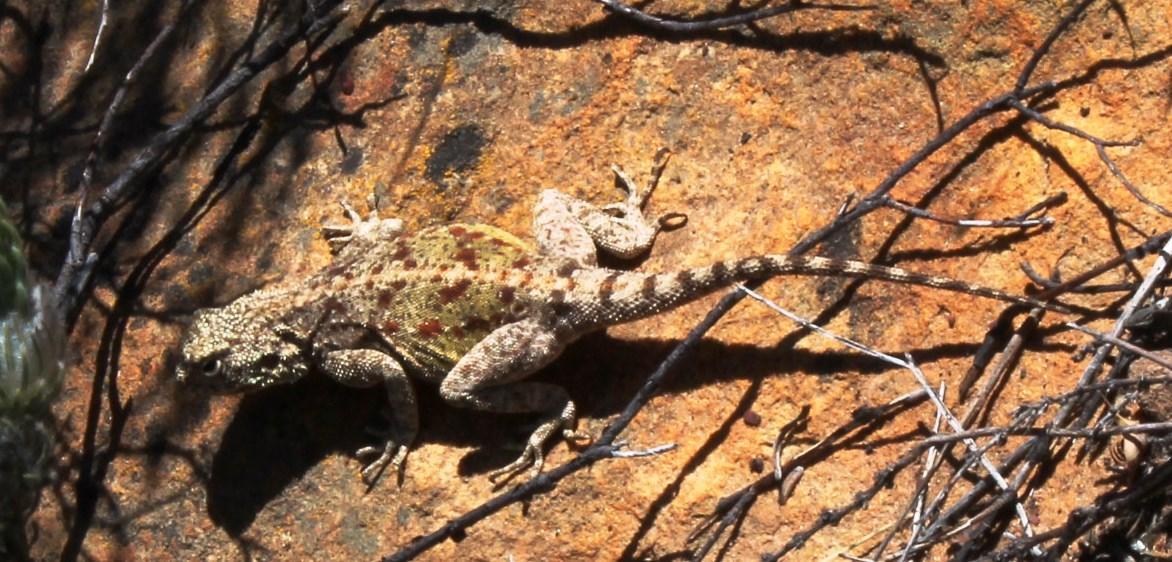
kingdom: Animalia
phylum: Chordata
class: Squamata
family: Agamidae
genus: Agama
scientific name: Agama atra
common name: Southern african rock agama
